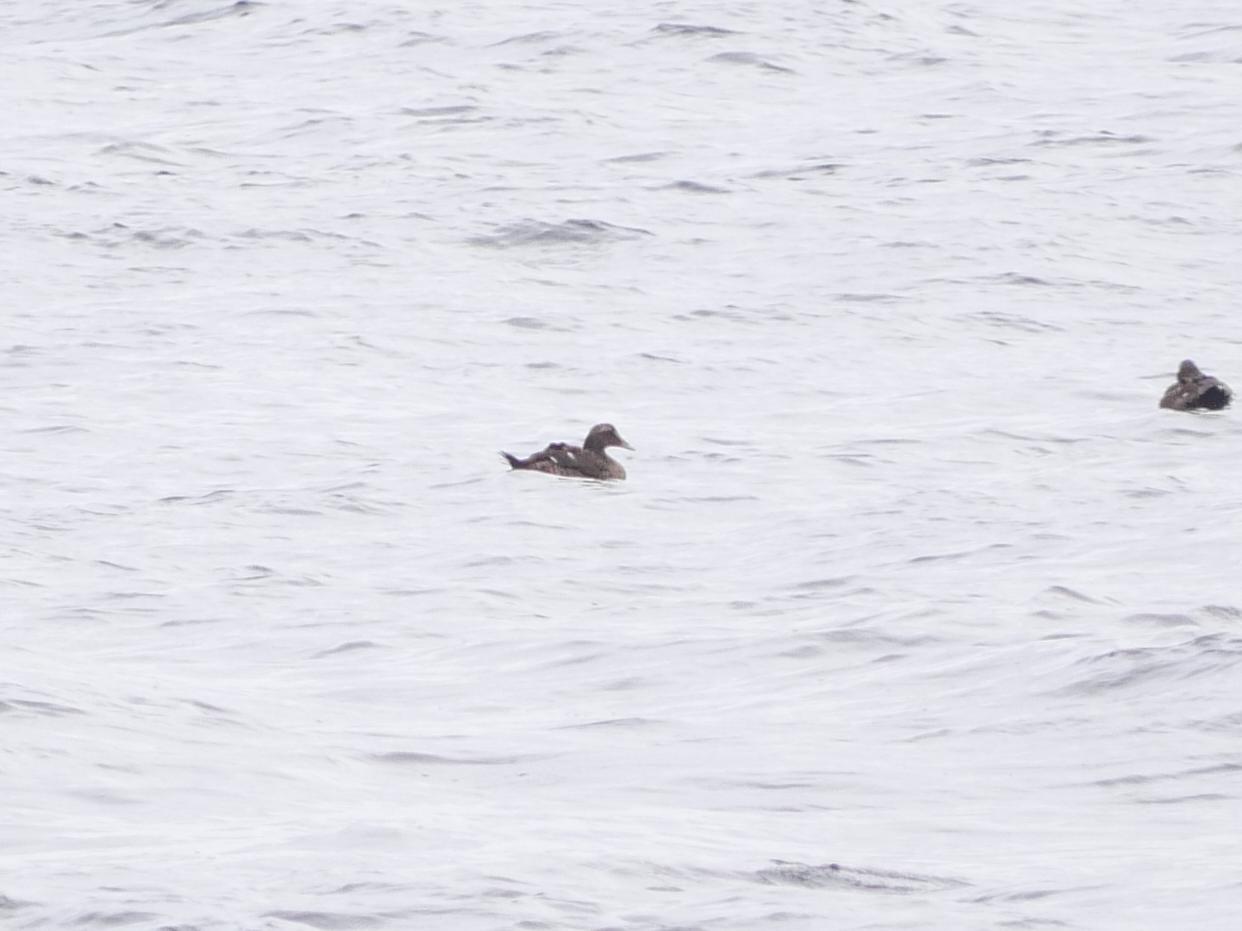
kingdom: Animalia
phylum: Chordata
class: Aves
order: Anseriformes
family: Anatidae
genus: Somateria
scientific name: Somateria mollissima
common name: Common eider
